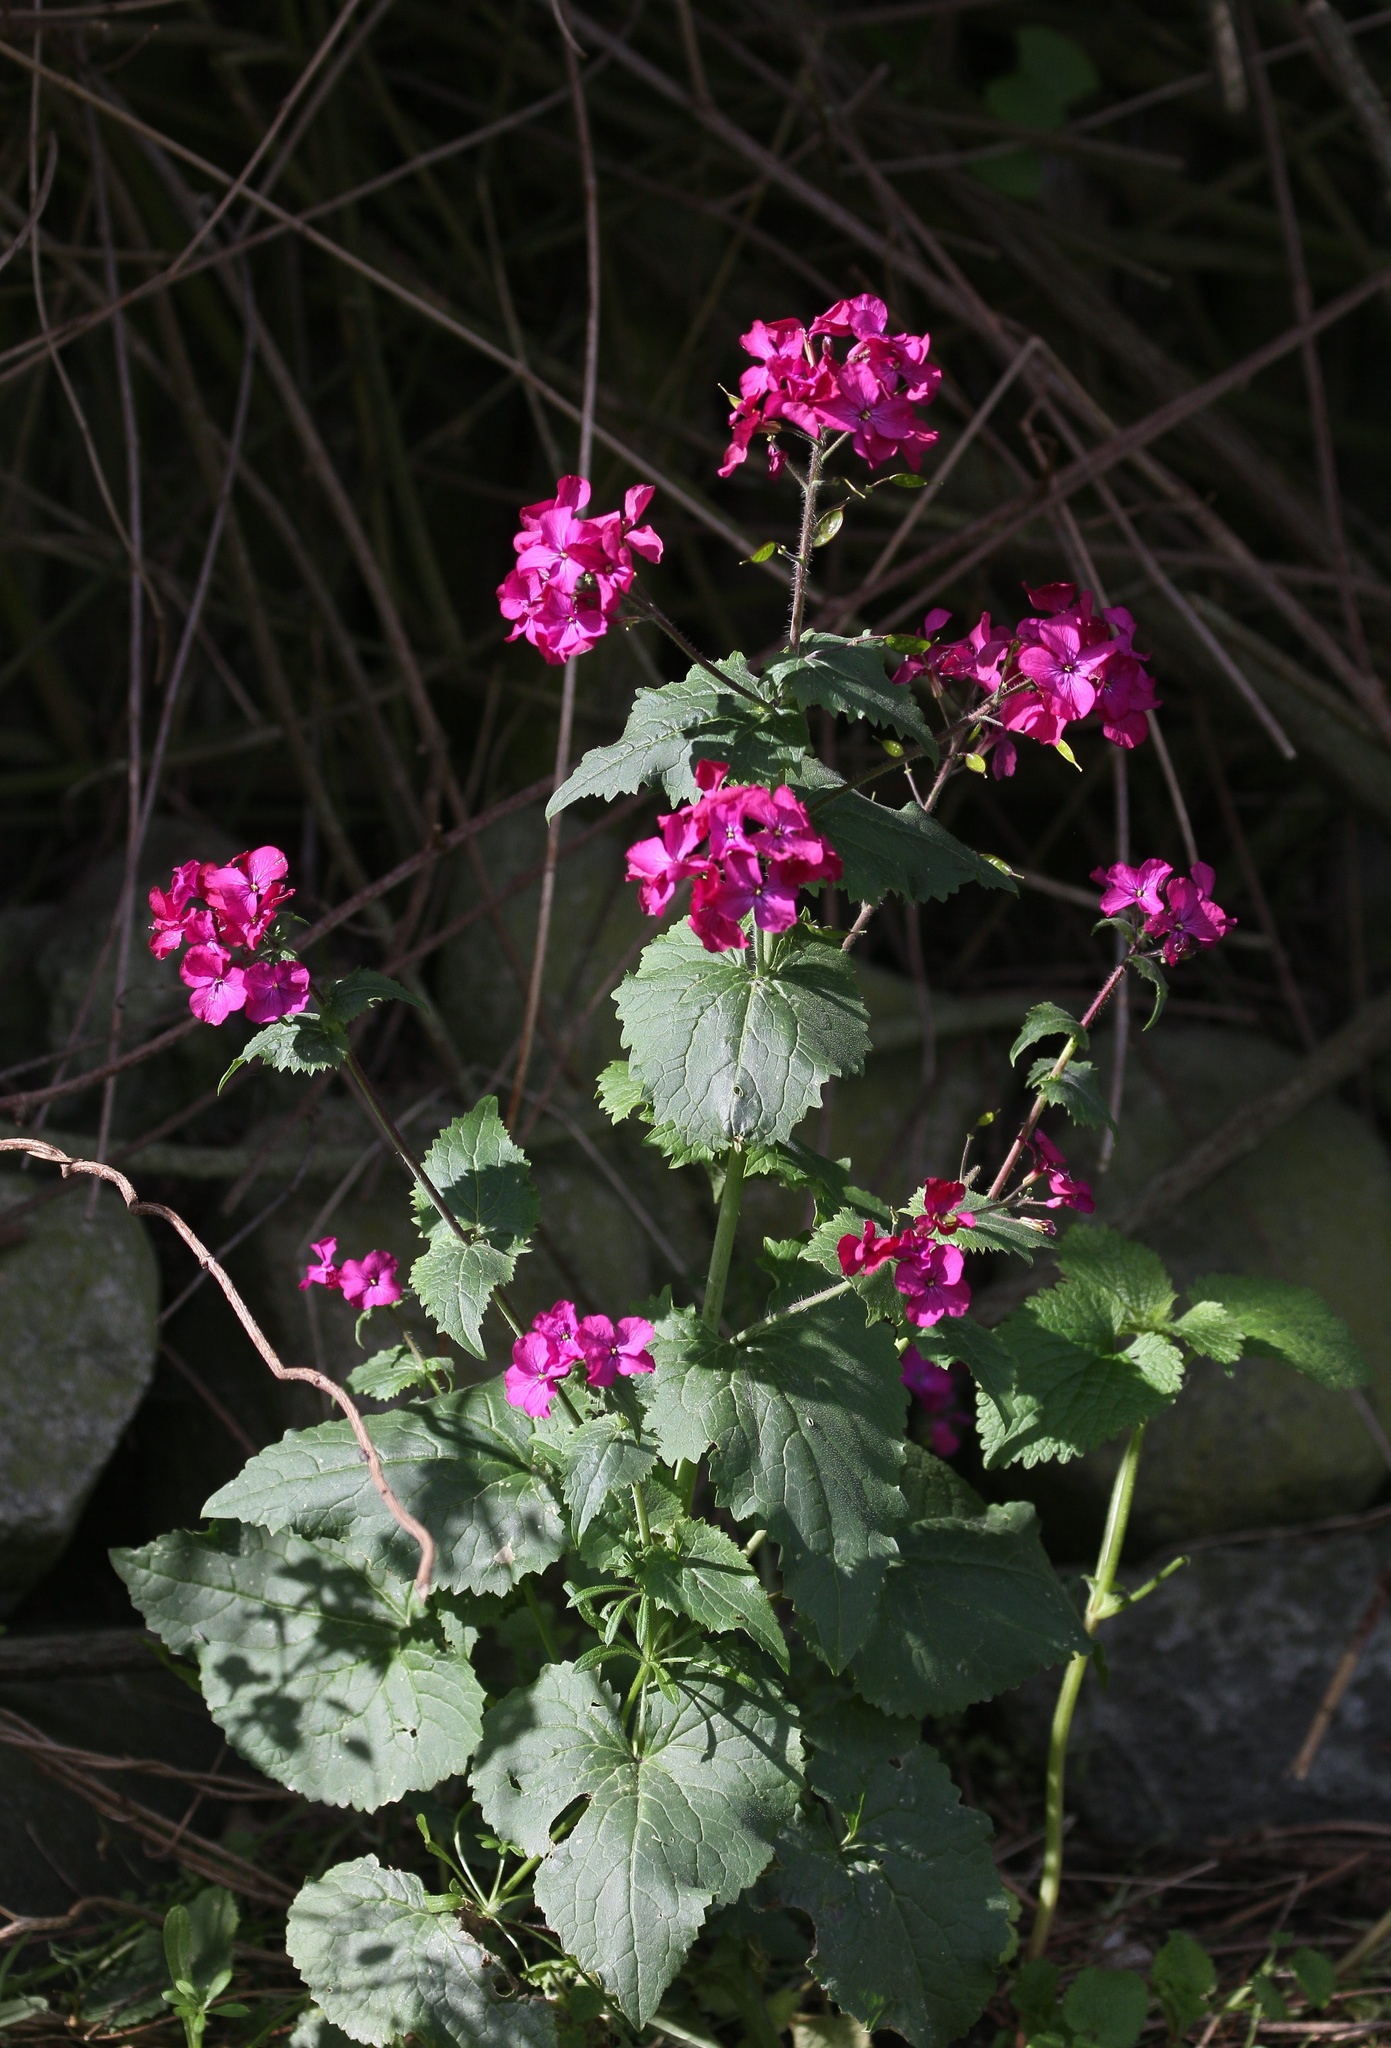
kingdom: Plantae
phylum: Tracheophyta
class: Magnoliopsida
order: Brassicales
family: Brassicaceae
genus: Lunaria
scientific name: Lunaria annua
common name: Honesty
